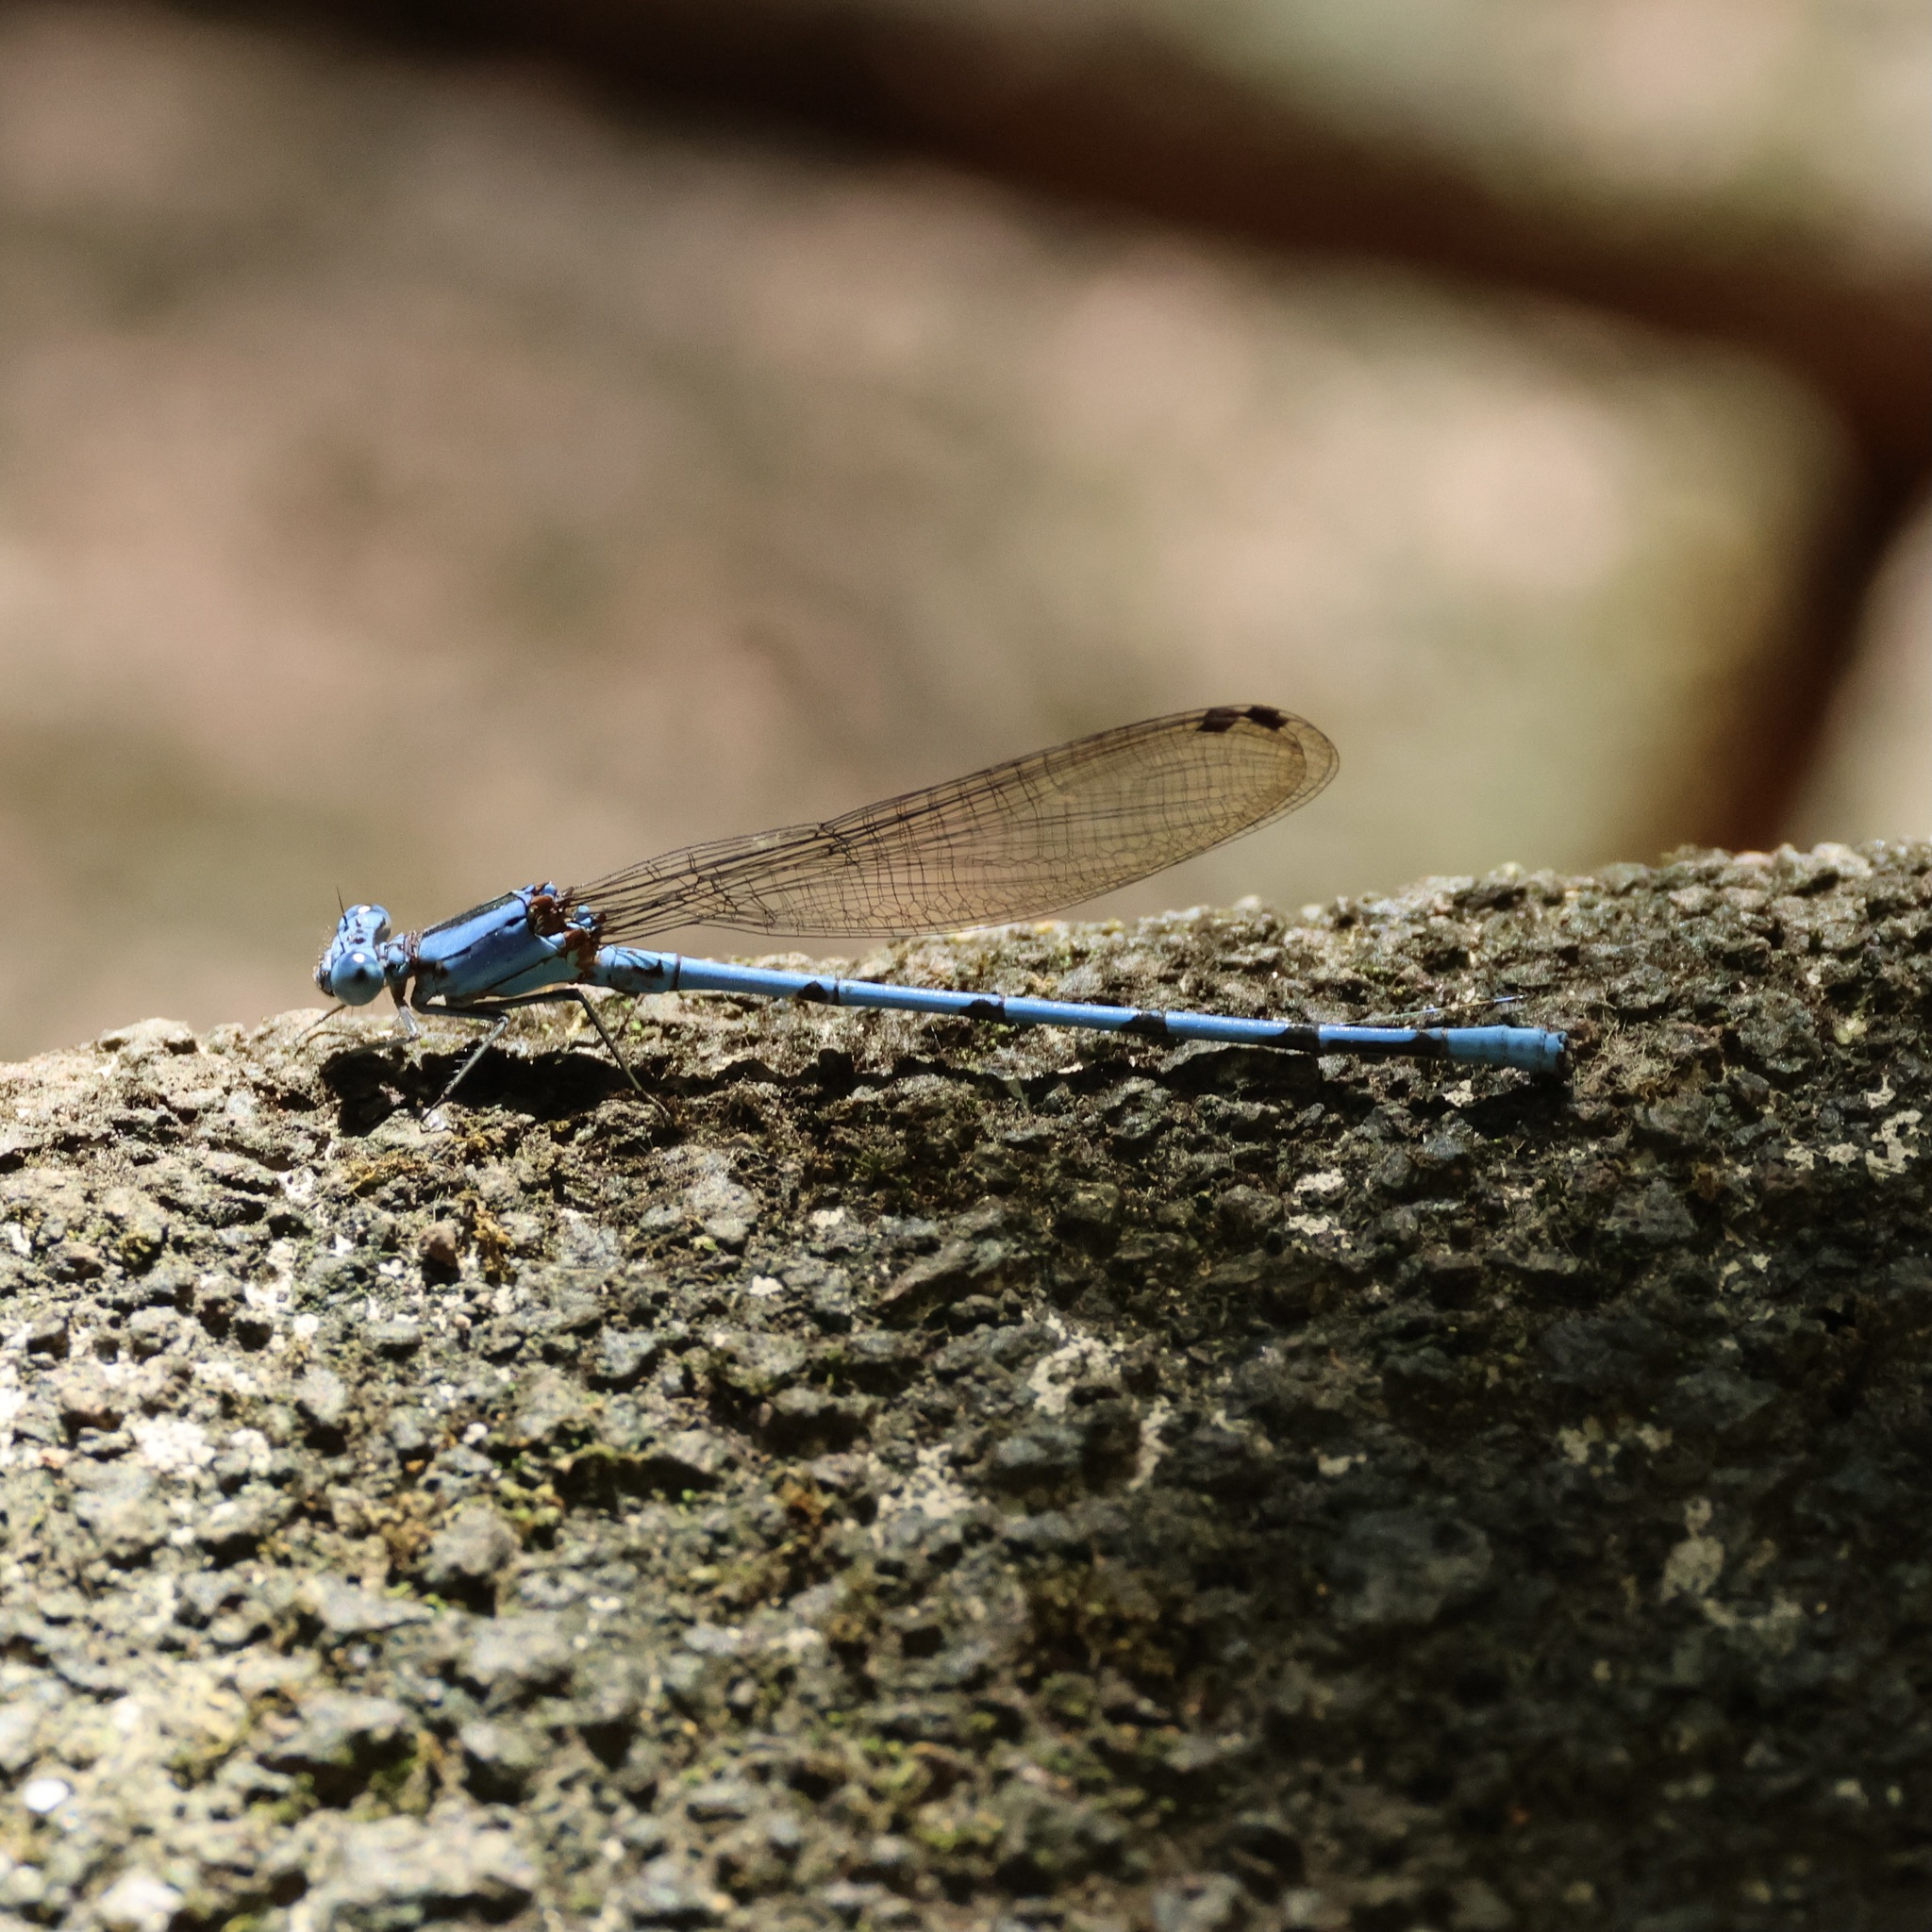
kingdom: Animalia
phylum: Arthropoda
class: Insecta
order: Odonata
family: Coenagrionidae
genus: Argia
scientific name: Argia anceps
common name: Cerulean dancer
